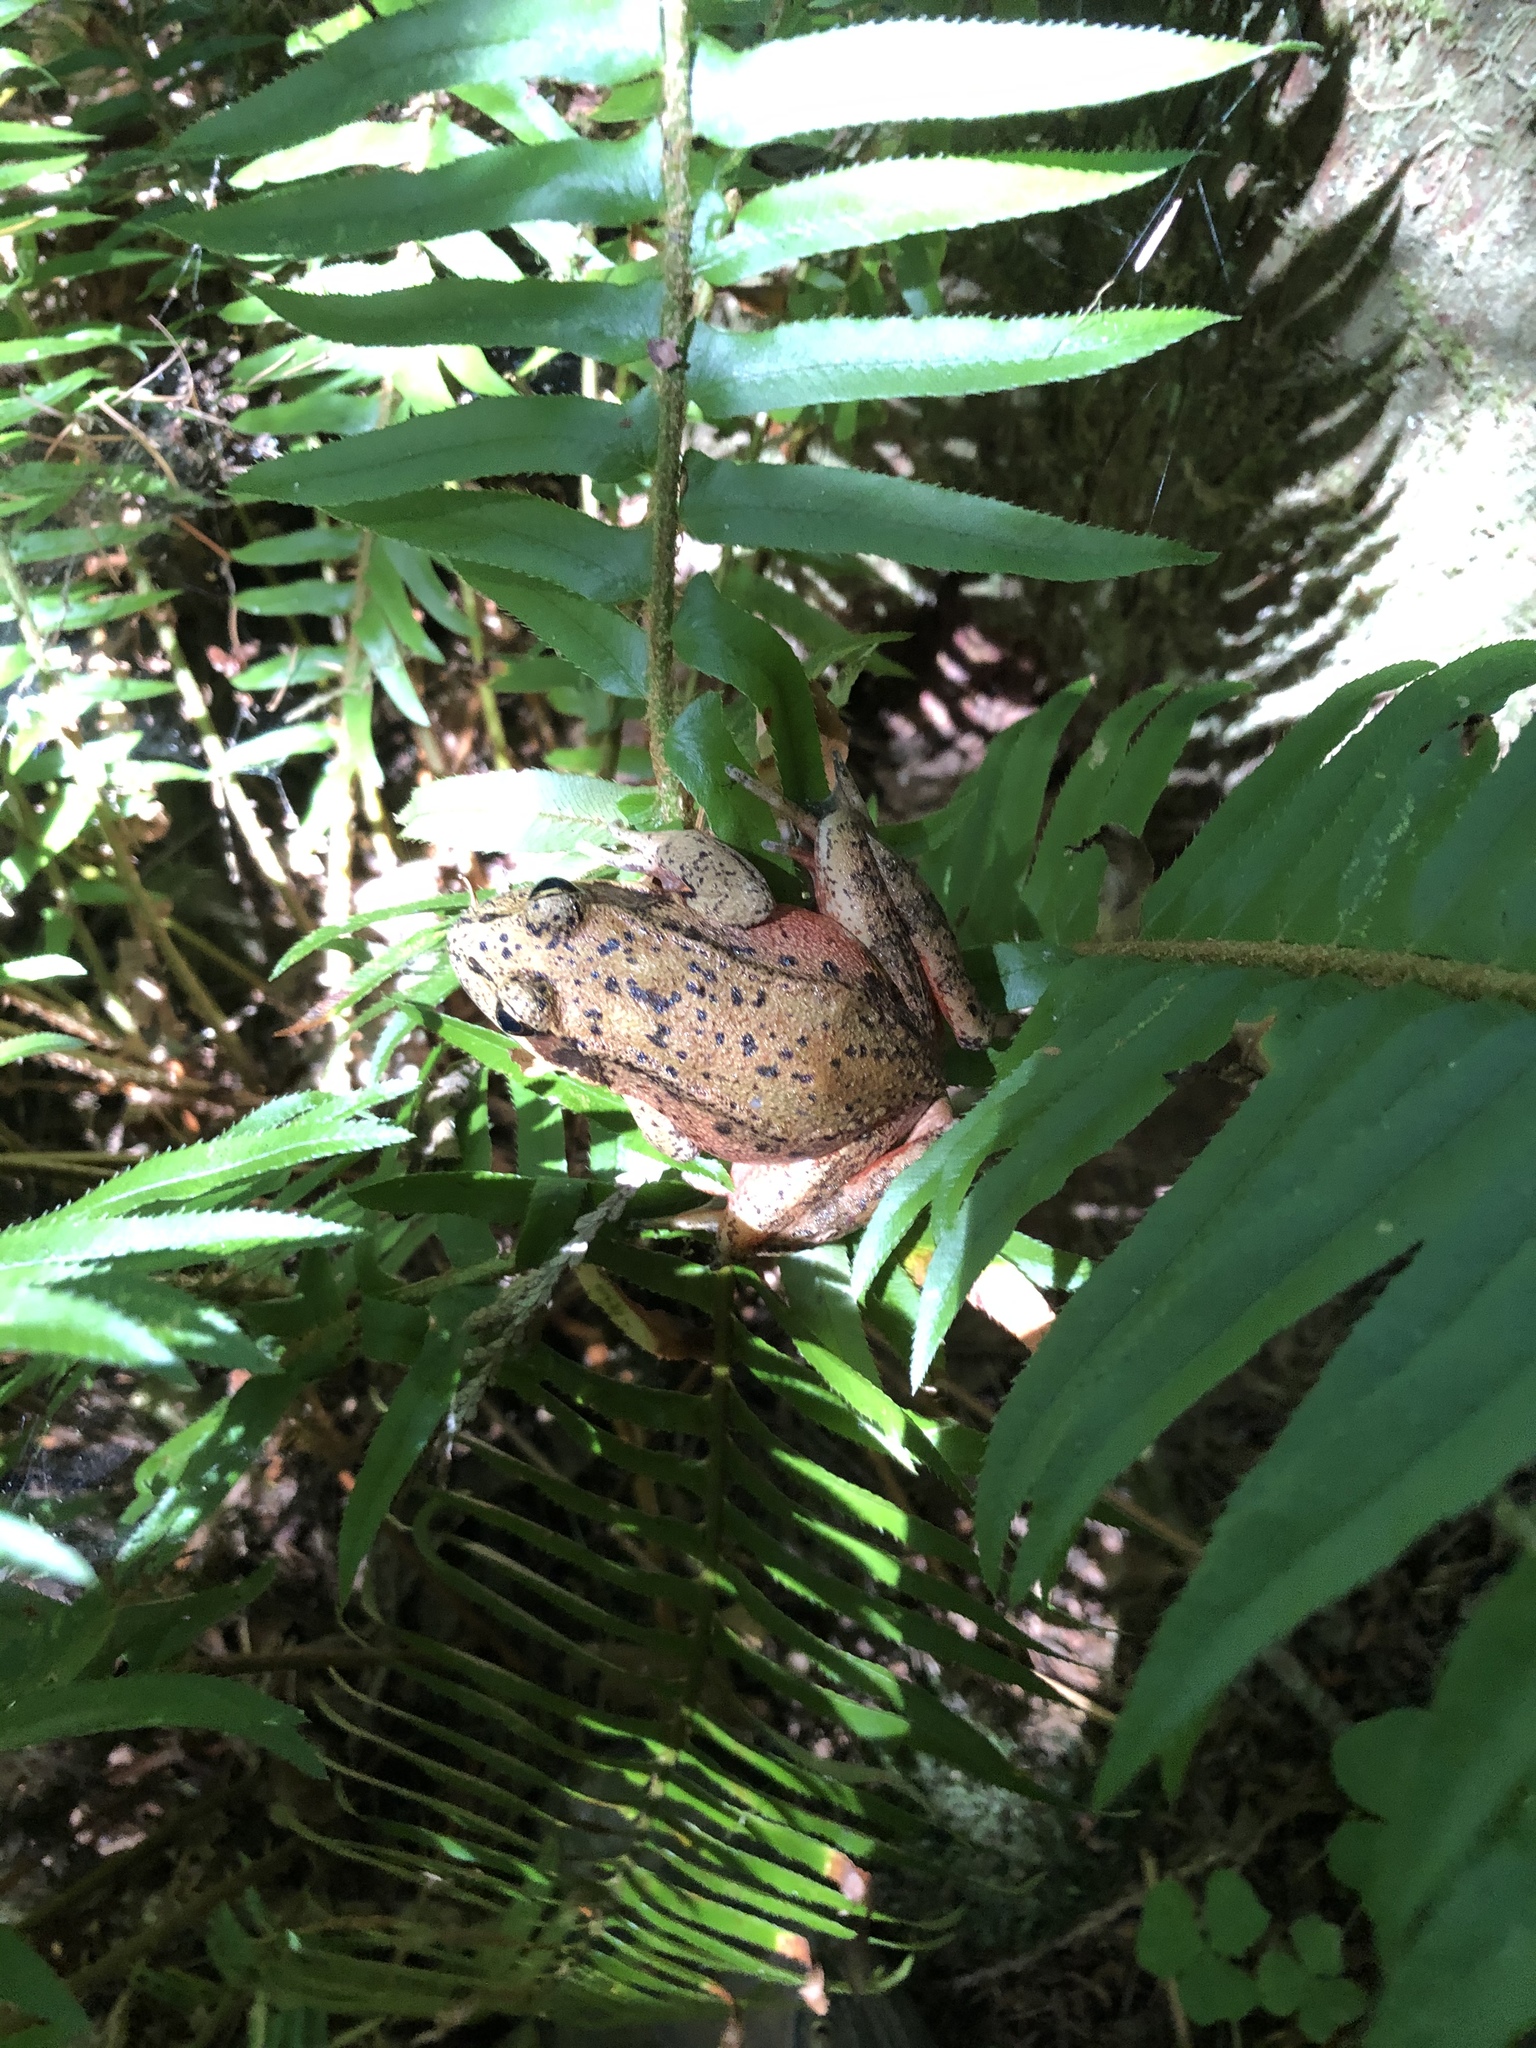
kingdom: Animalia
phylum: Chordata
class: Amphibia
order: Anura
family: Ranidae
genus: Rana
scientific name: Rana aurora
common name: Red-legged frog
